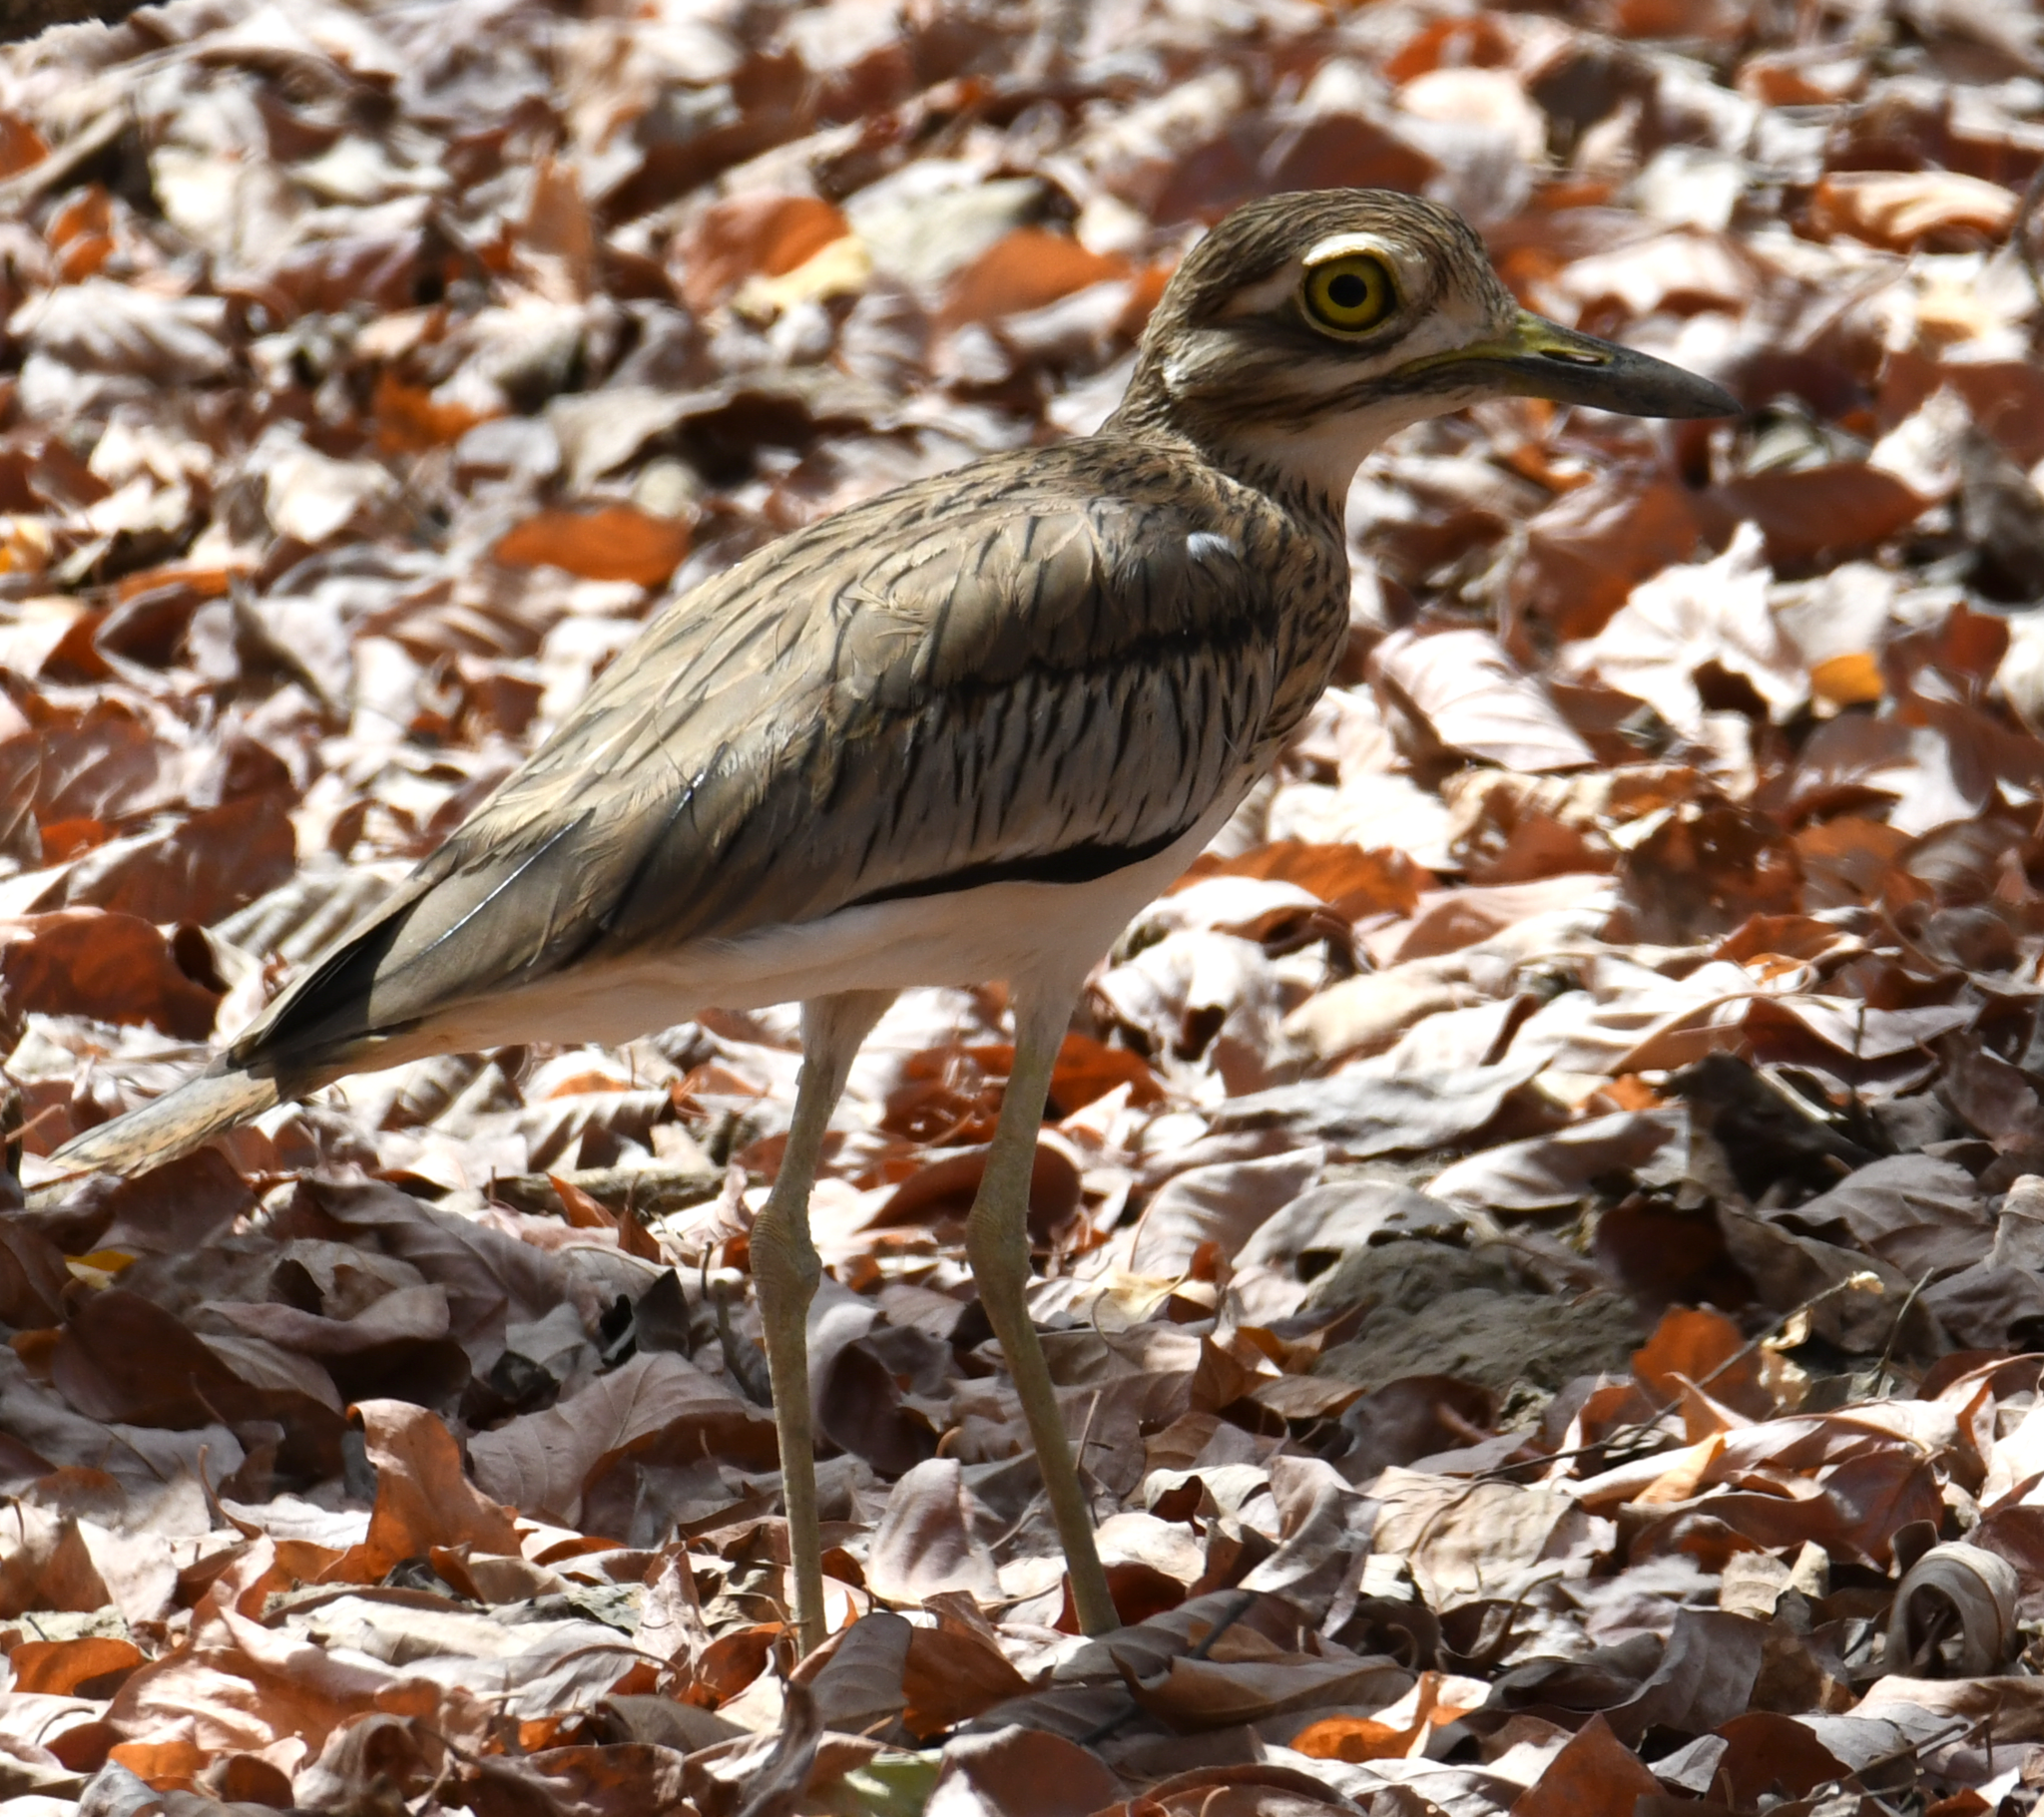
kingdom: Animalia
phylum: Chordata
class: Aves
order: Charadriiformes
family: Burhinidae
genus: Burhinus
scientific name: Burhinus senegalensis
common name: Senegal thick-knee
